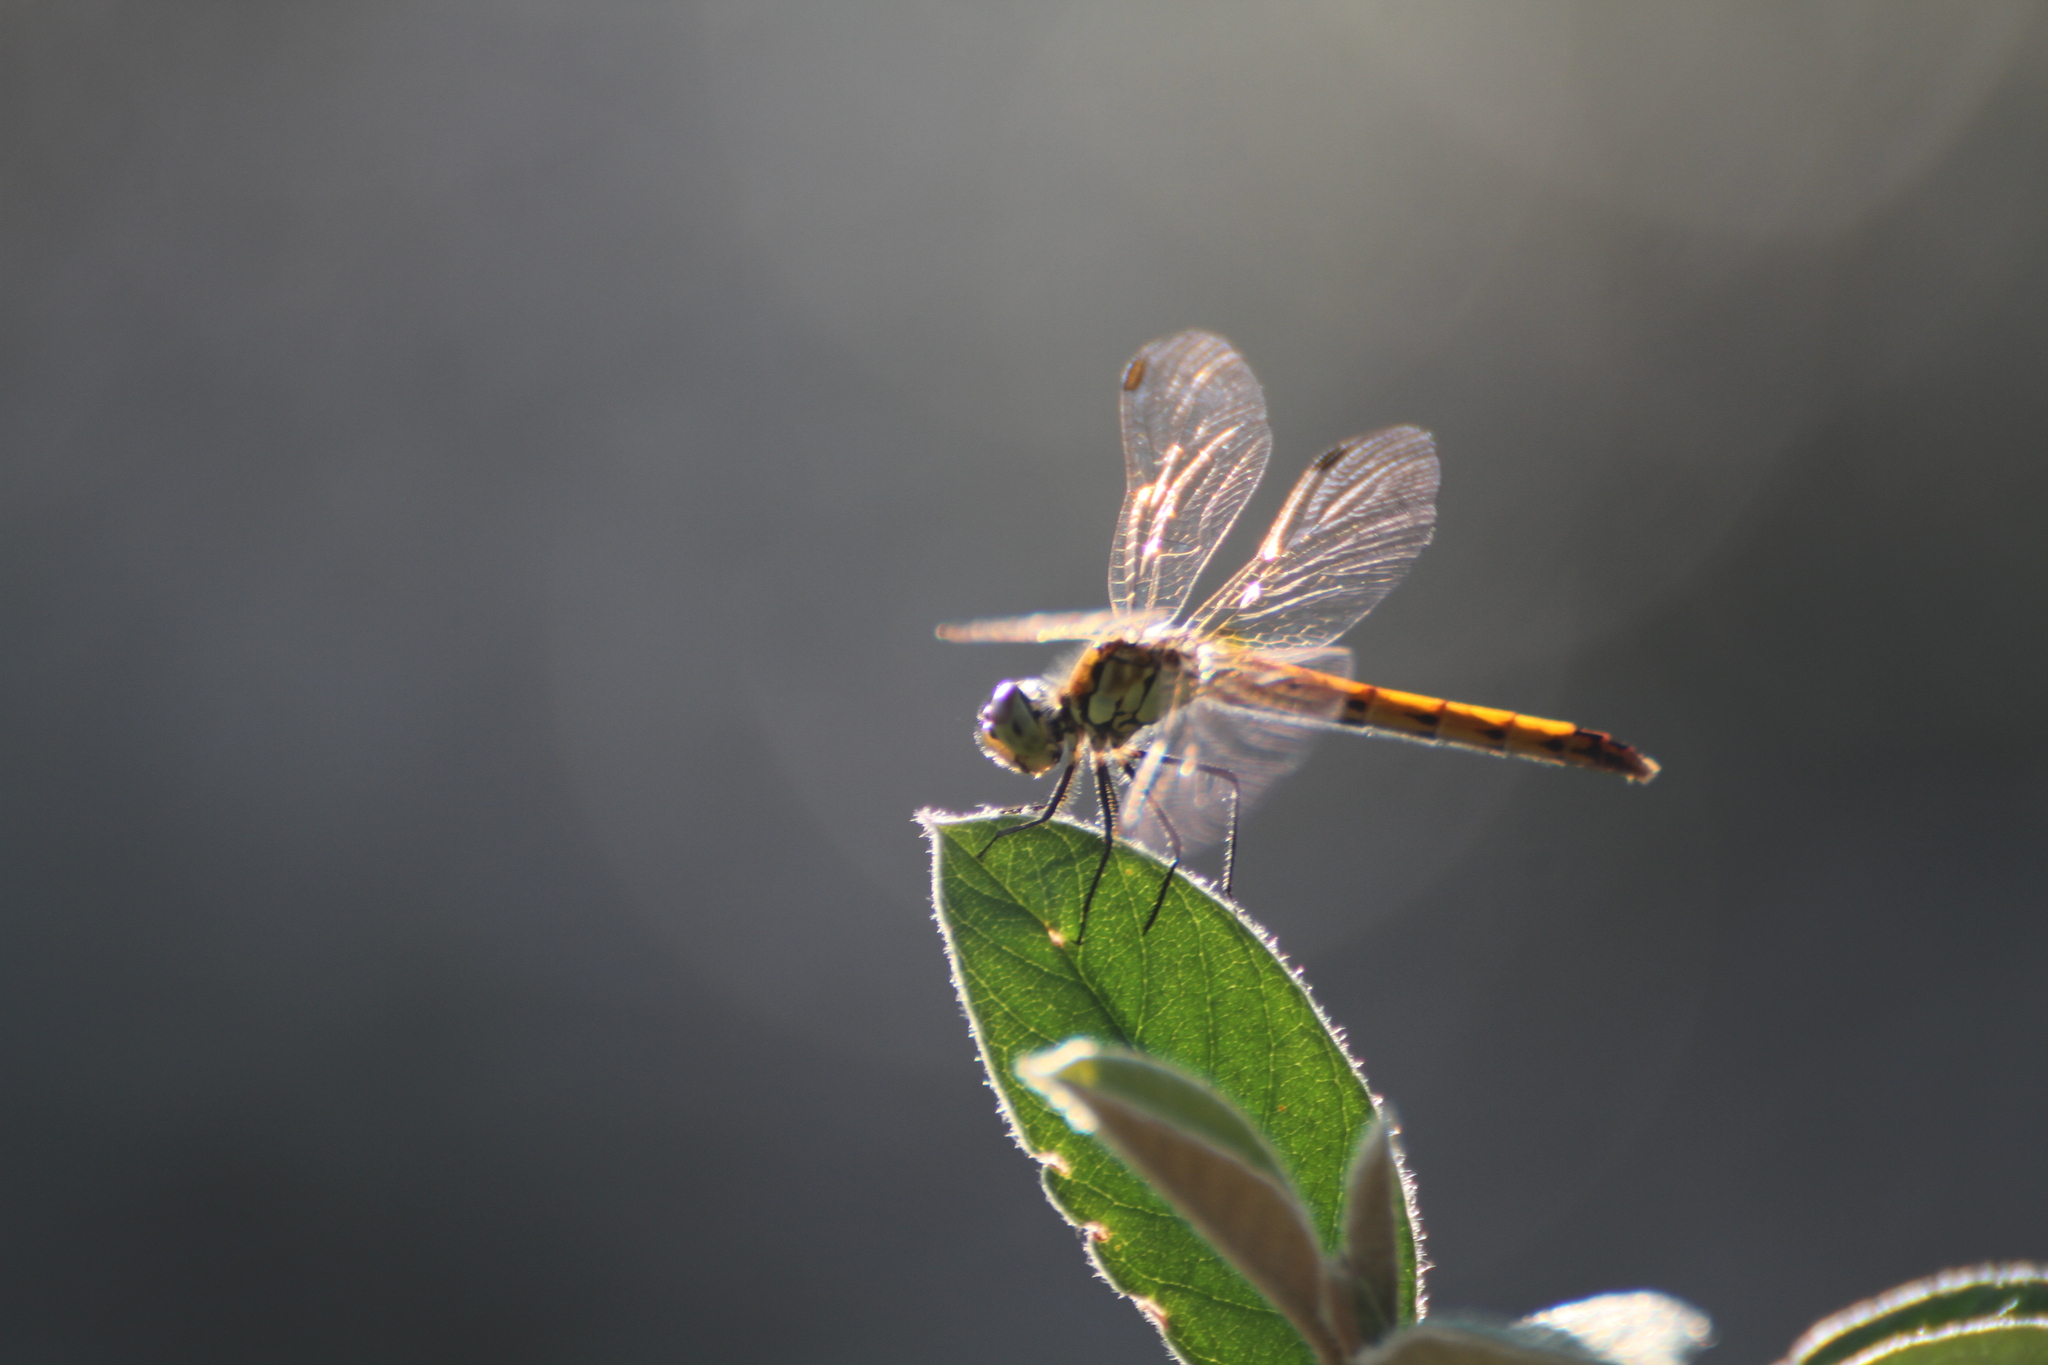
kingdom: Animalia
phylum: Arthropoda
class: Insecta
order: Odonata
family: Libellulidae
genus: Sympetrum
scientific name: Sympetrum depressiusculum
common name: Spotted darter
